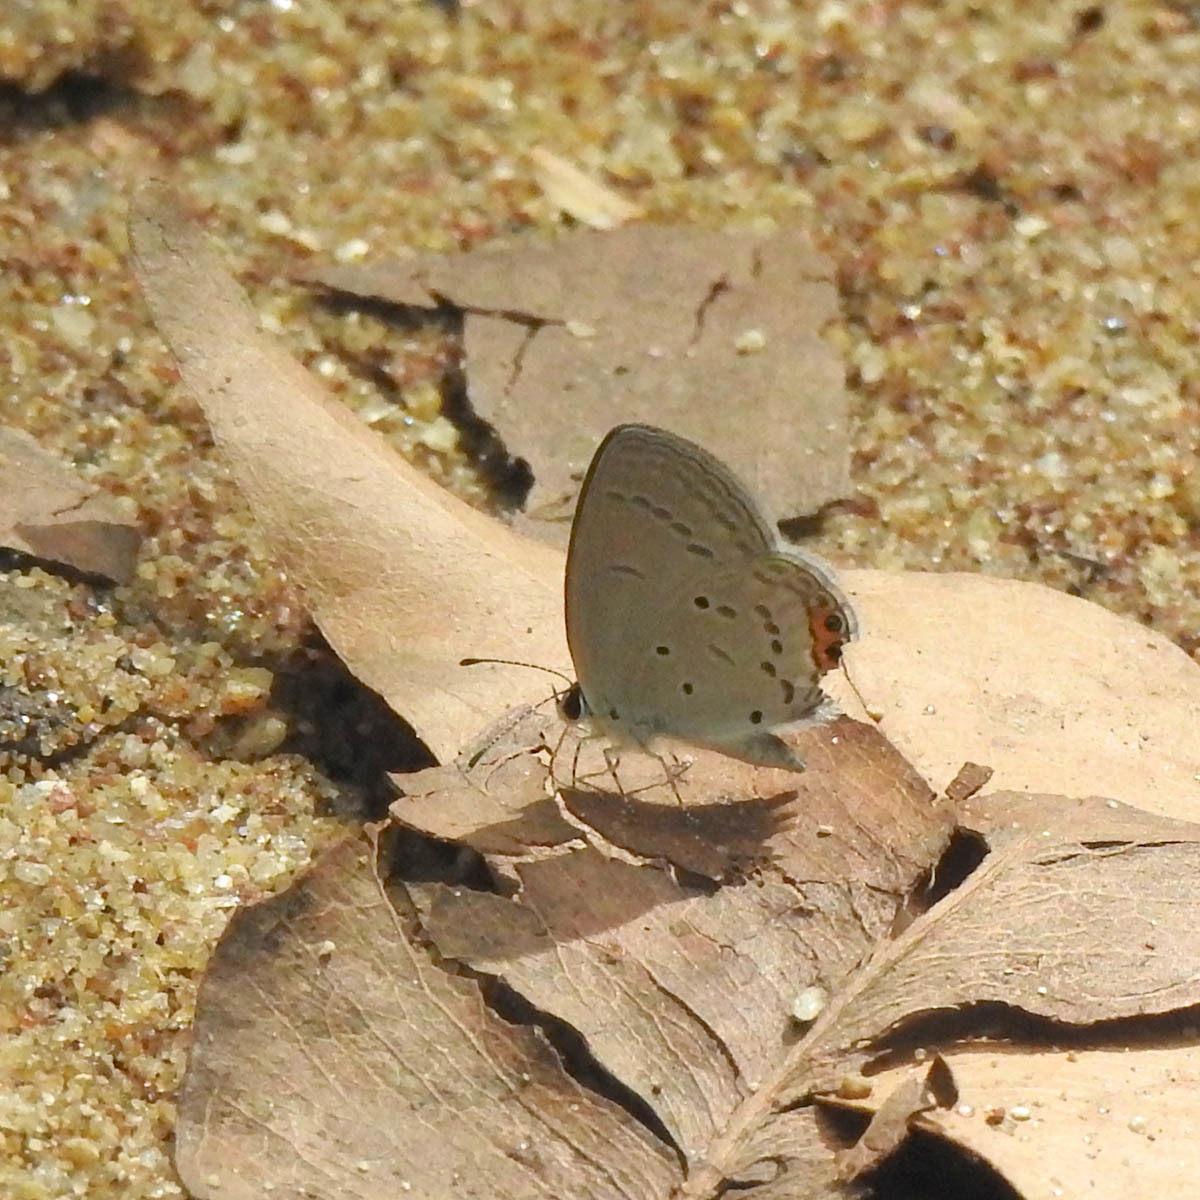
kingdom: Animalia
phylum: Arthropoda
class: Insecta
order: Lepidoptera
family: Lycaenidae
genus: Everes
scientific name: Everes lacturnus
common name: Orange-tipped pea-blue
